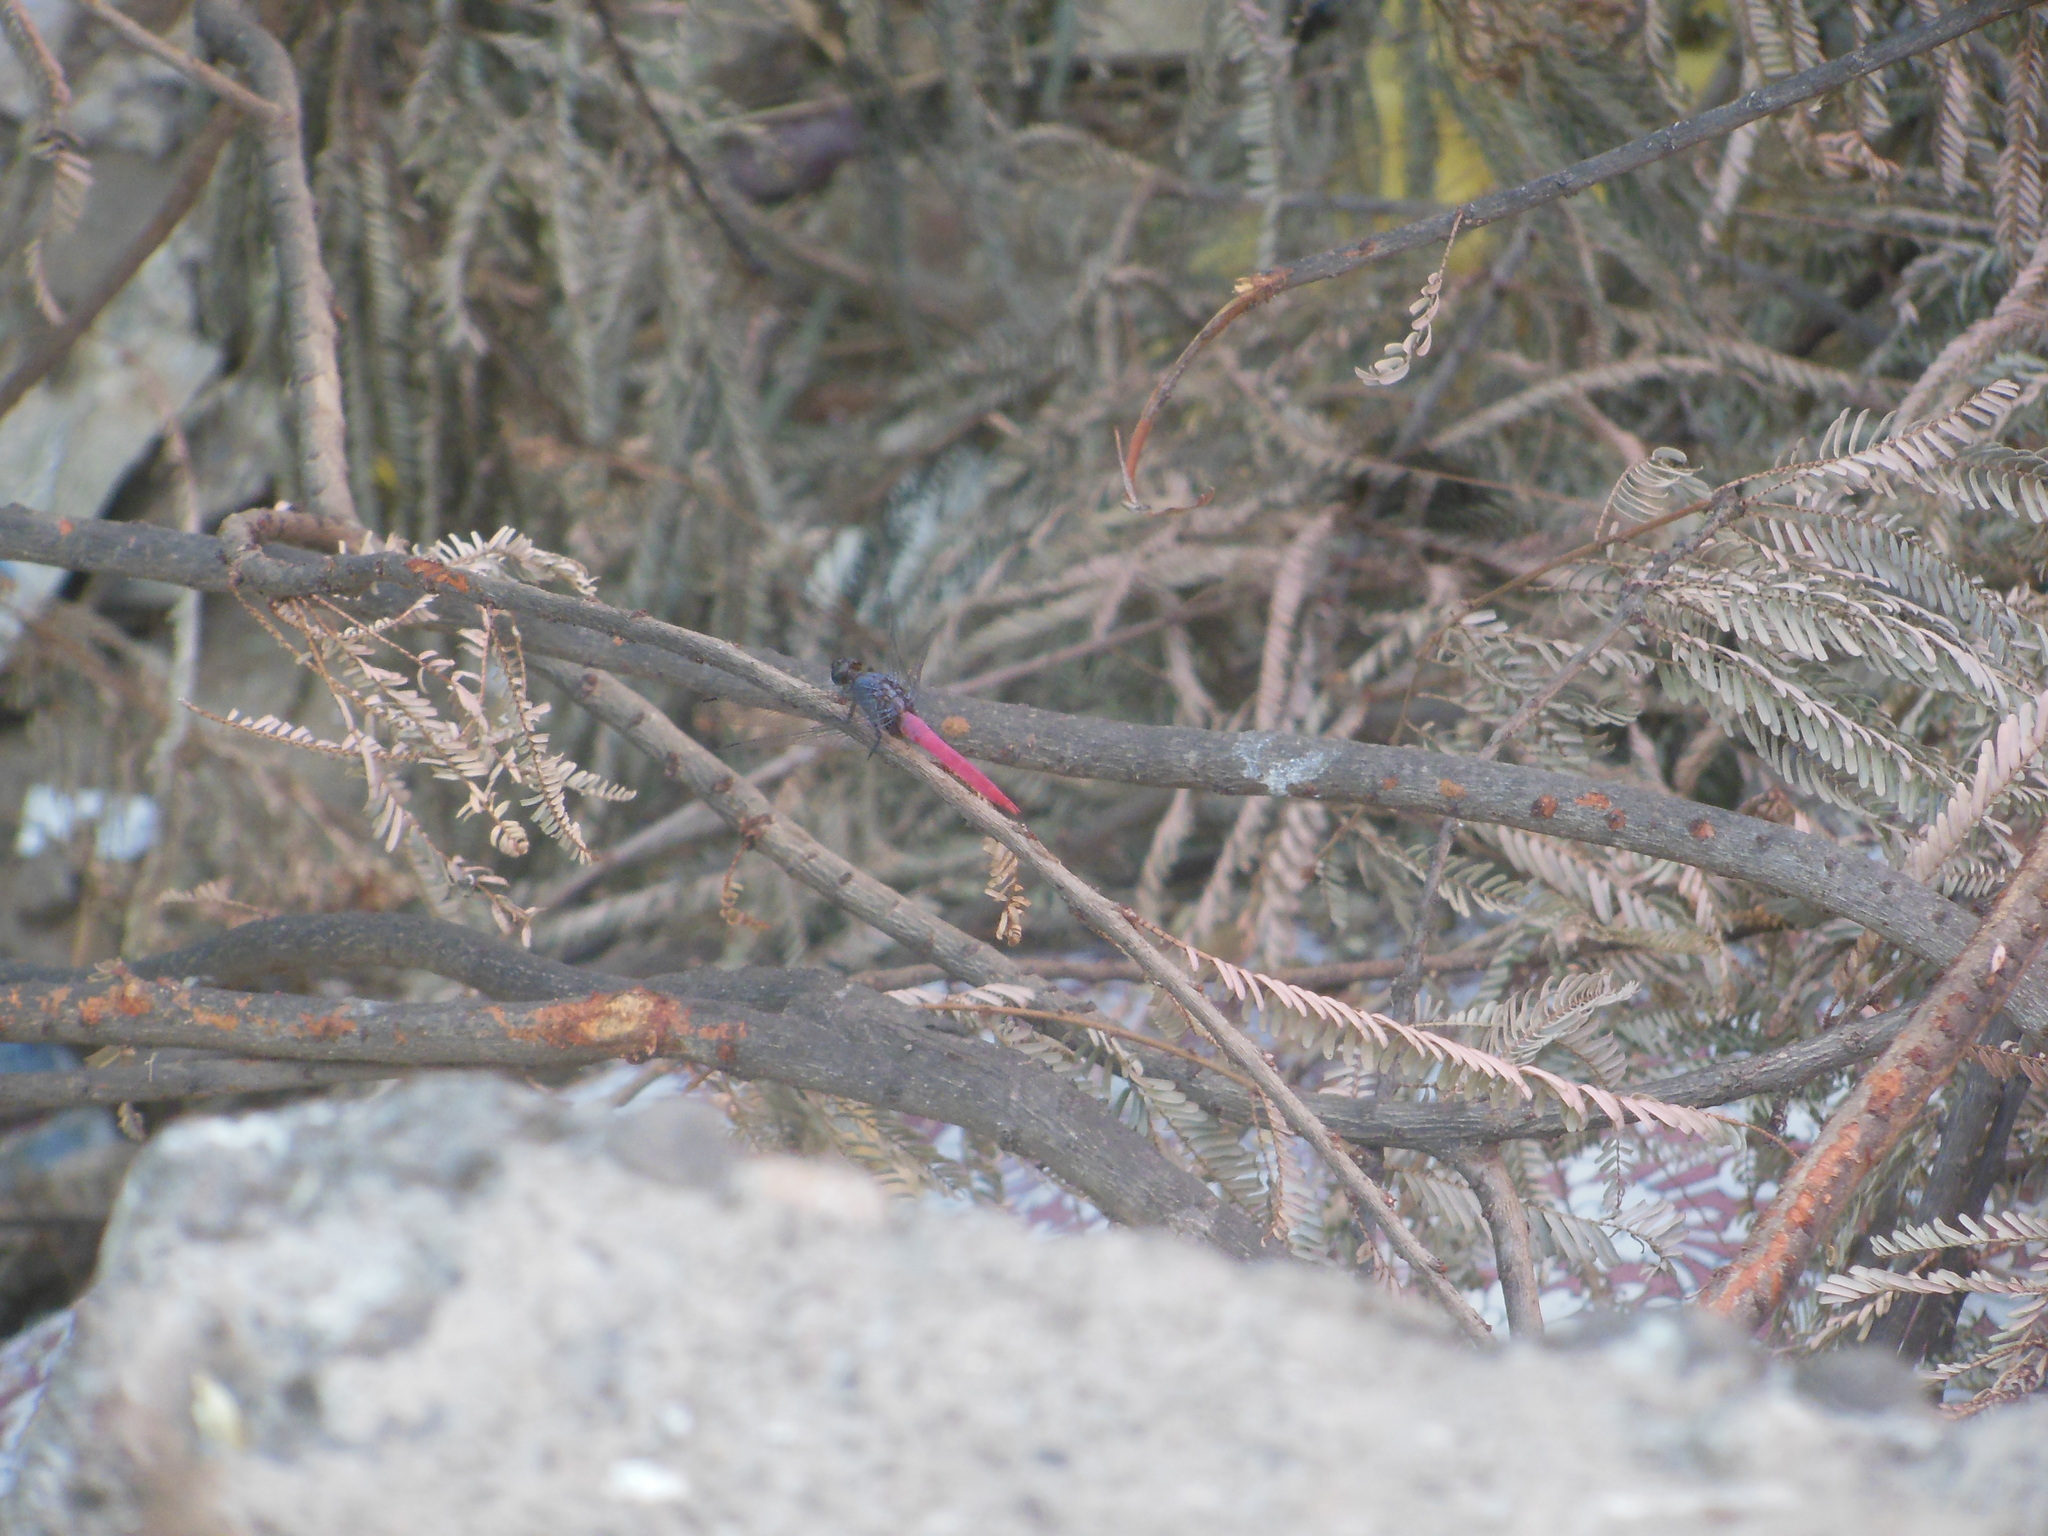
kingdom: Animalia
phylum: Arthropoda
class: Insecta
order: Odonata
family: Libellulidae
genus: Orthetrum
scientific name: Orthetrum pruinosum
